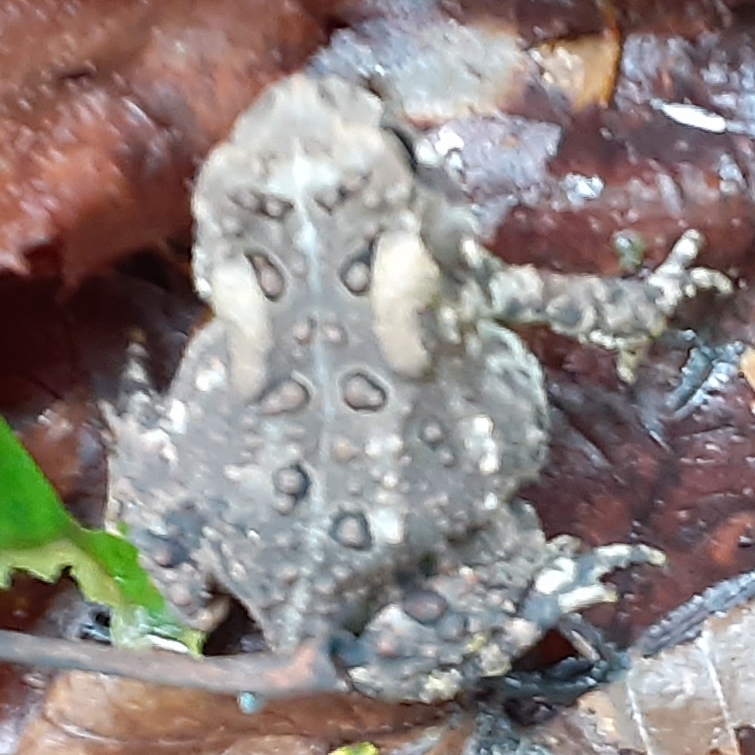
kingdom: Animalia
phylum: Chordata
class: Amphibia
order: Anura
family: Bufonidae
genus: Anaxyrus
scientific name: Anaxyrus americanus
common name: American toad
